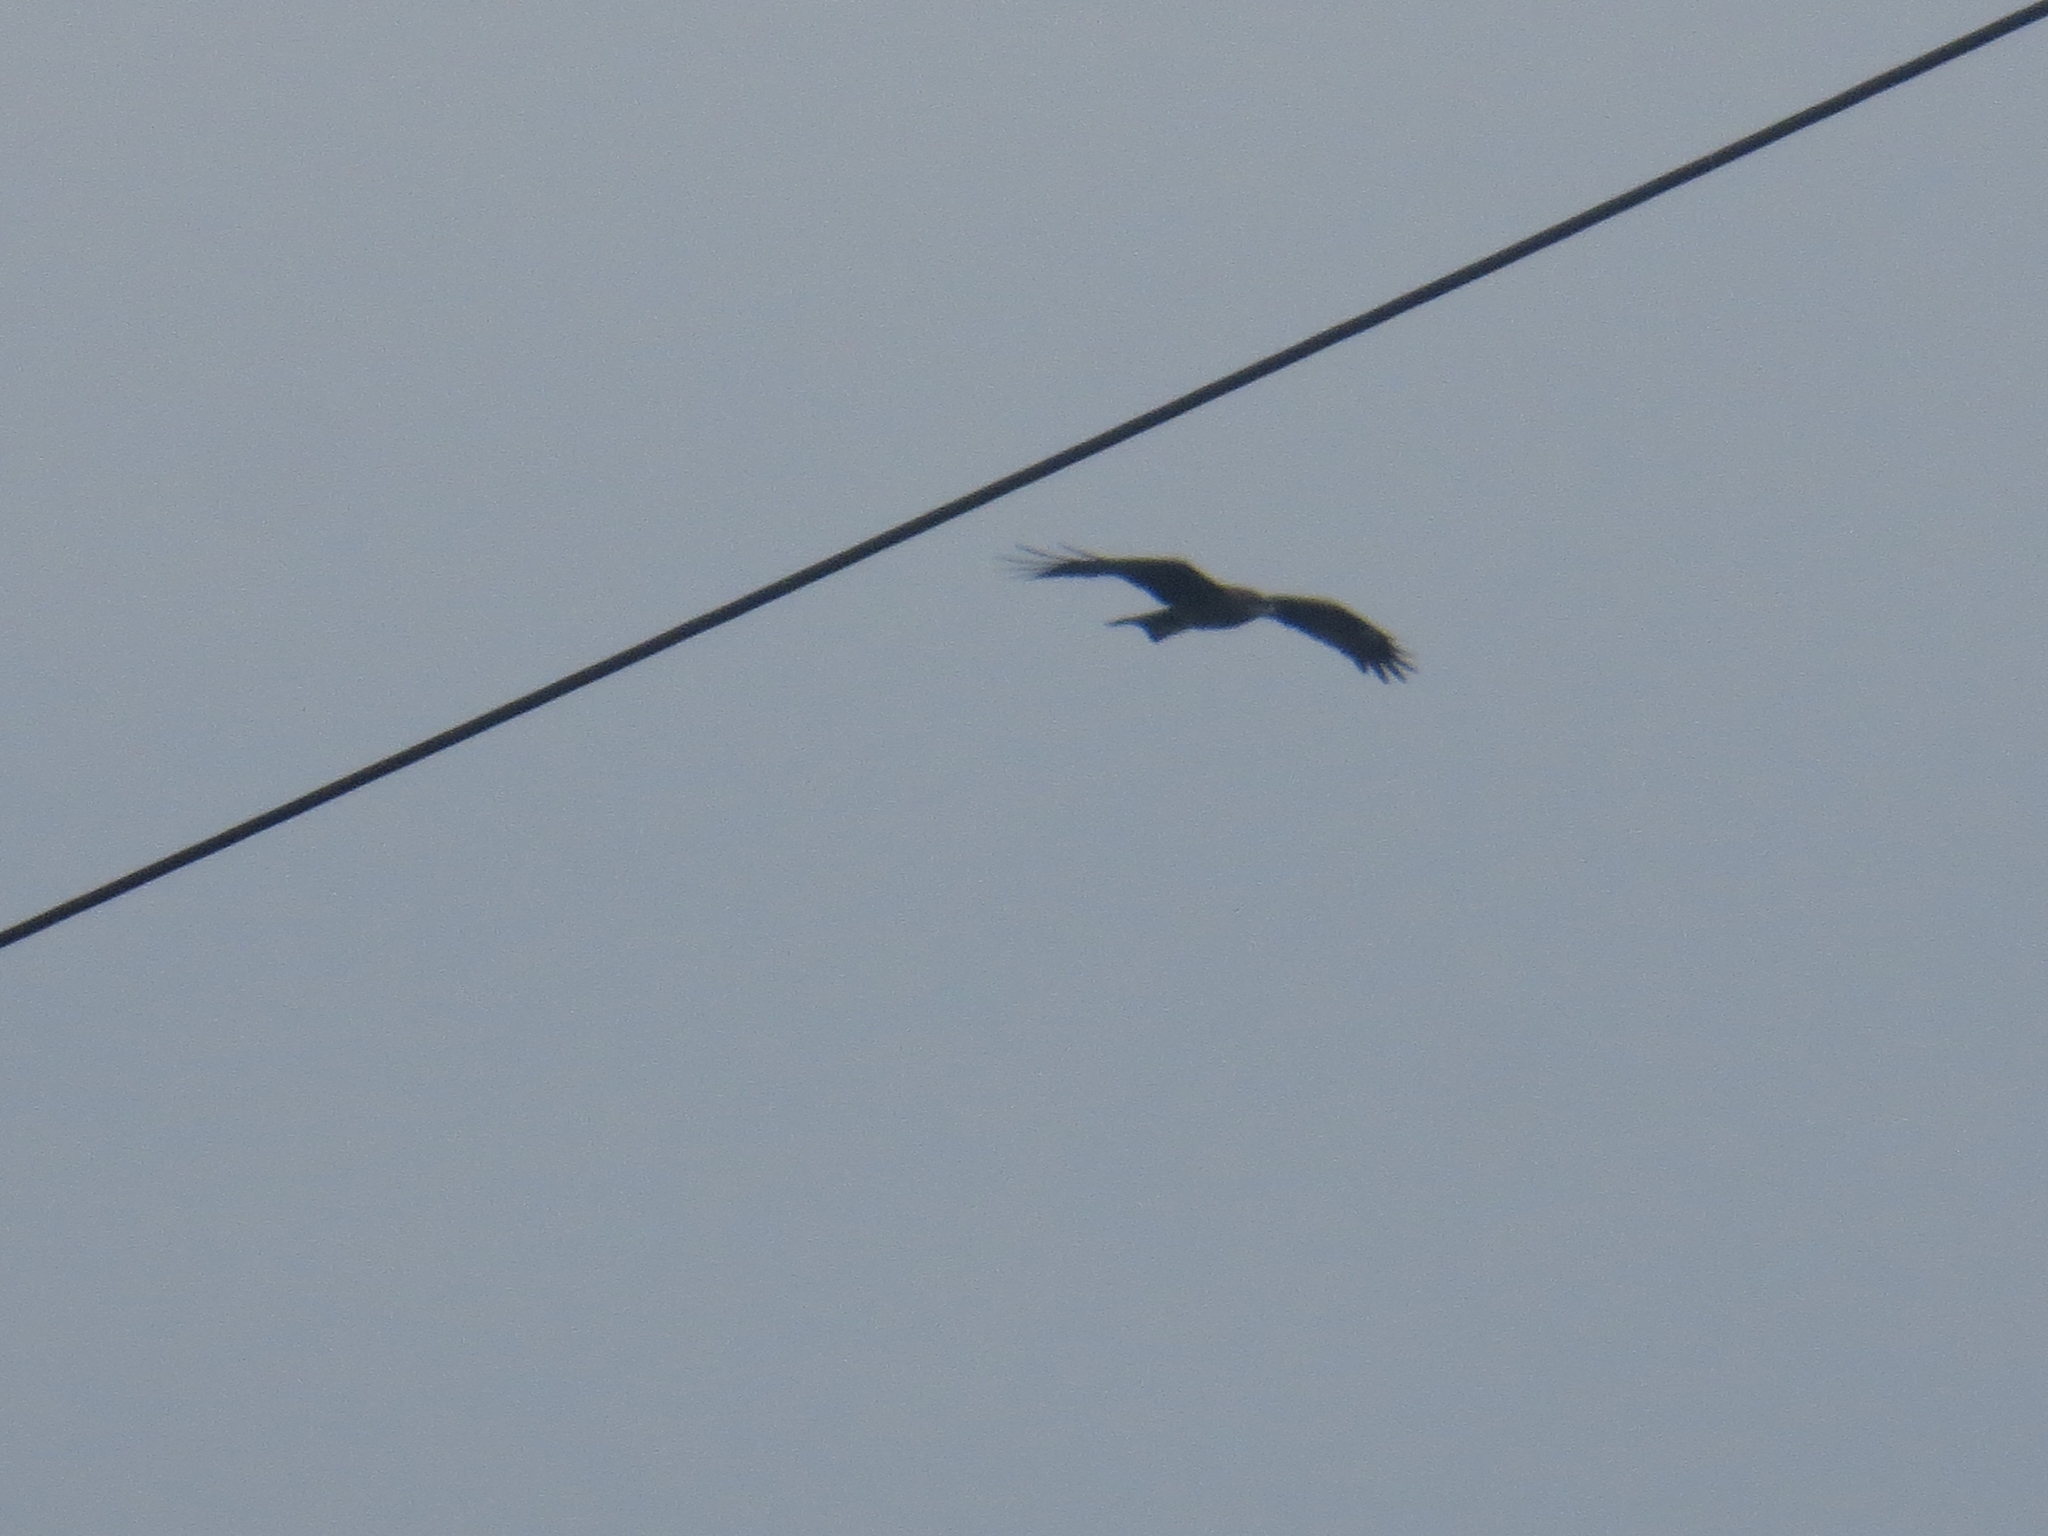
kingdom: Animalia
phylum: Chordata
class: Aves
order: Accipitriformes
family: Accipitridae
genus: Milvus
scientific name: Milvus migrans
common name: Black kite
